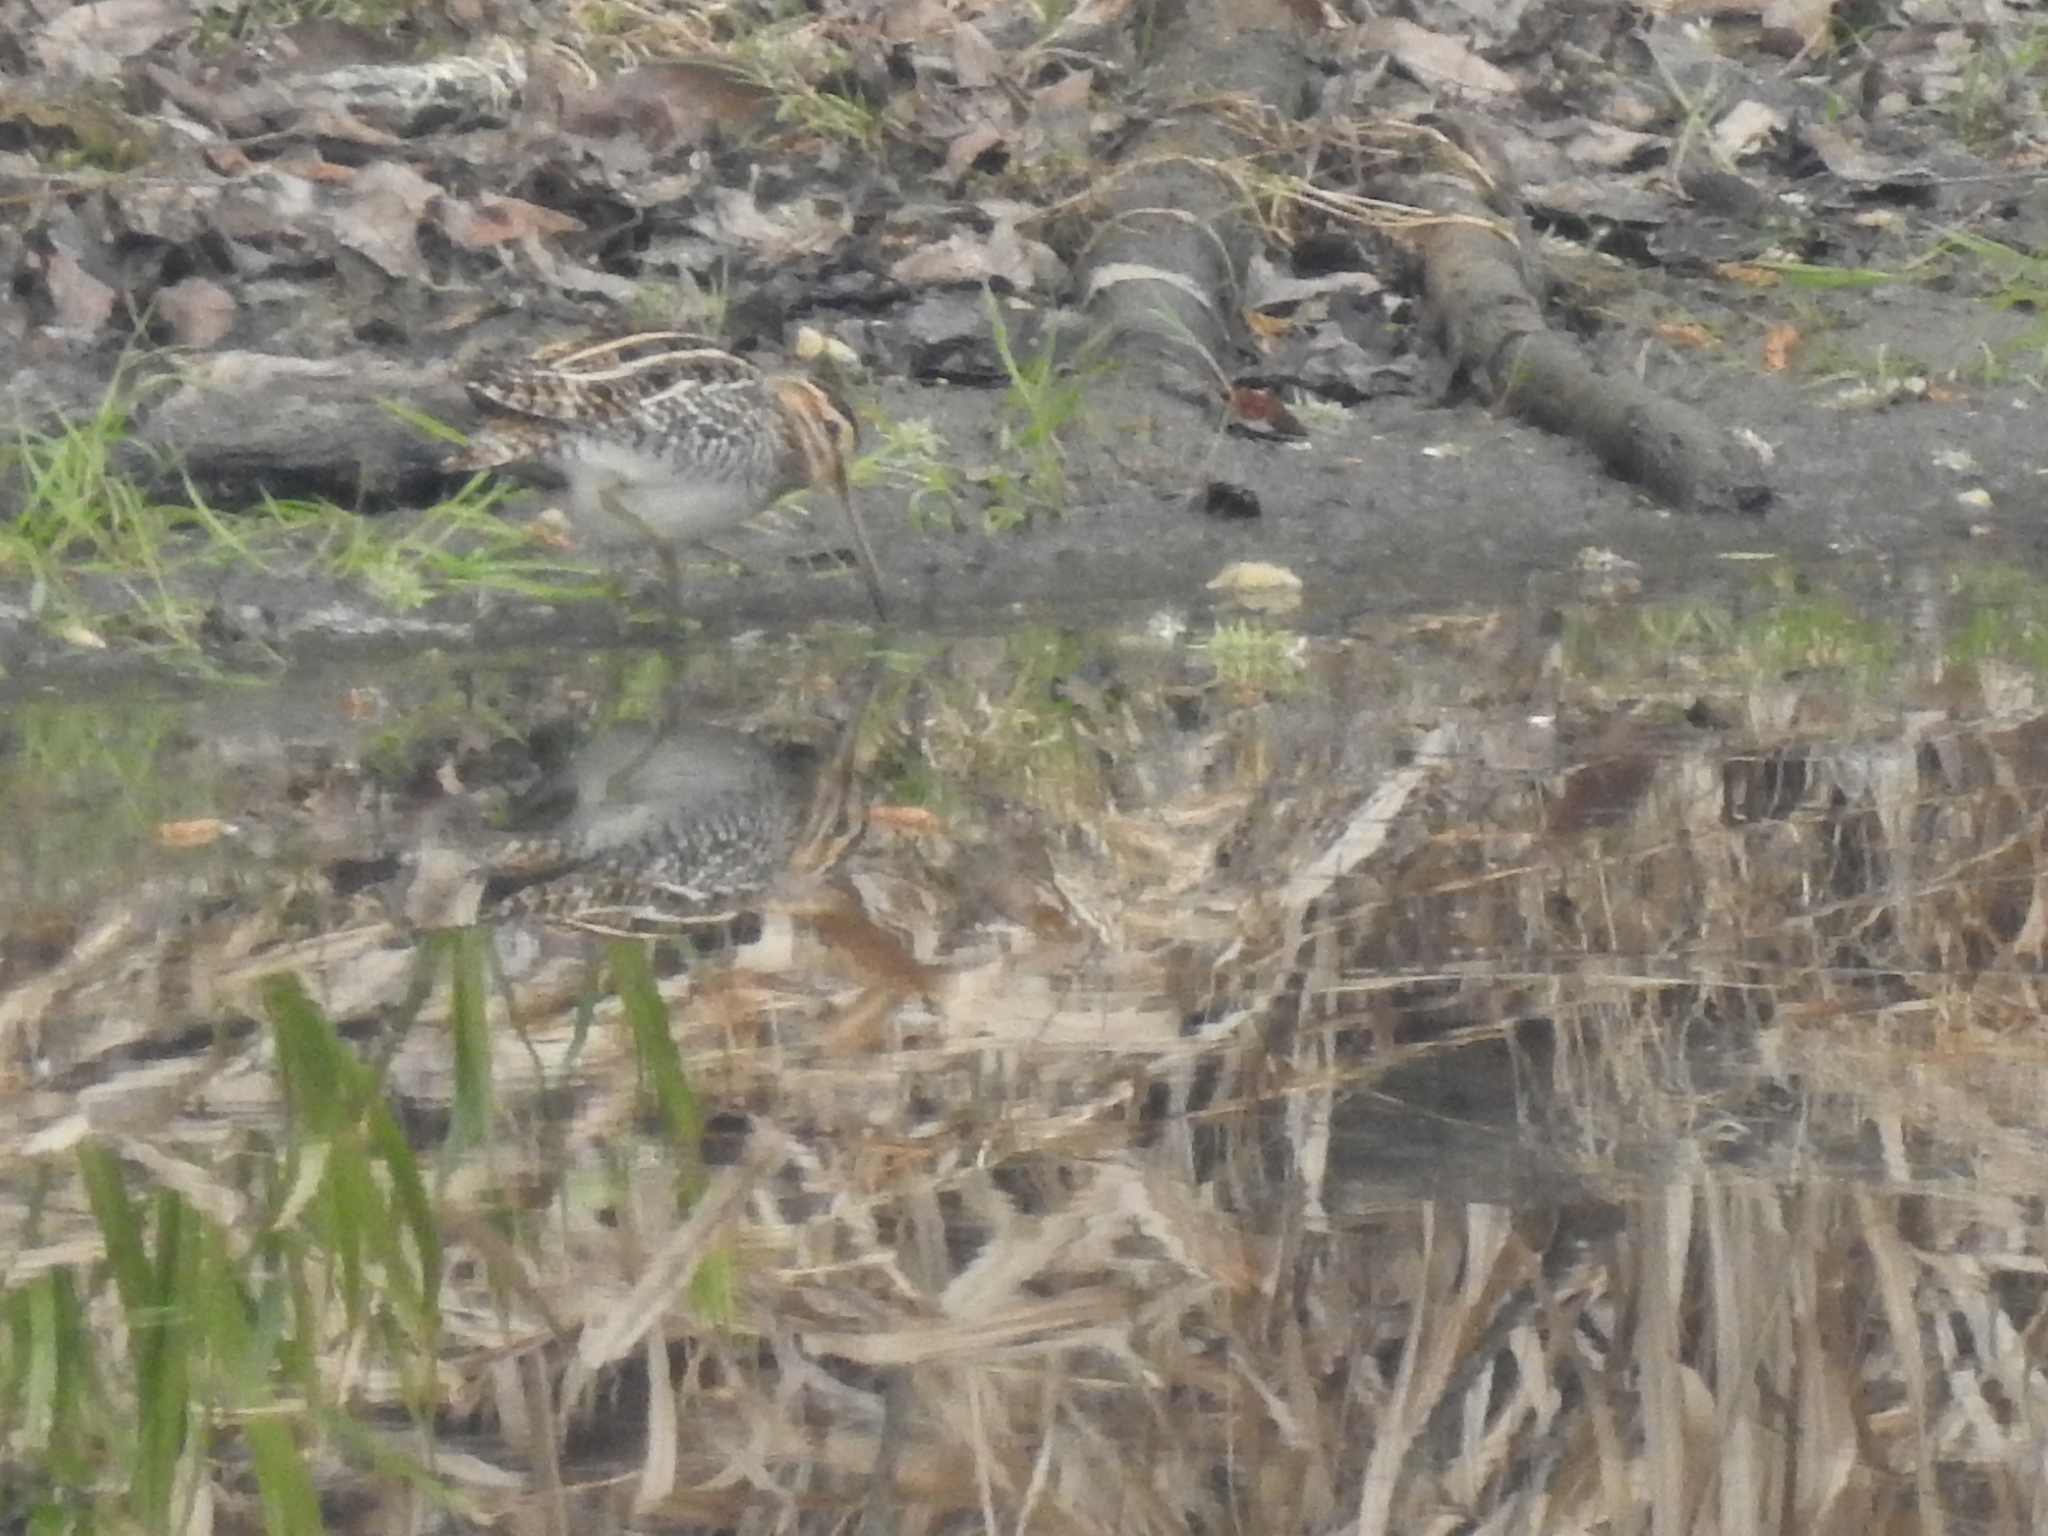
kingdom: Animalia
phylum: Chordata
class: Aves
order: Charadriiformes
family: Scolopacidae
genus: Gallinago
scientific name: Gallinago gallinago
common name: Common snipe
